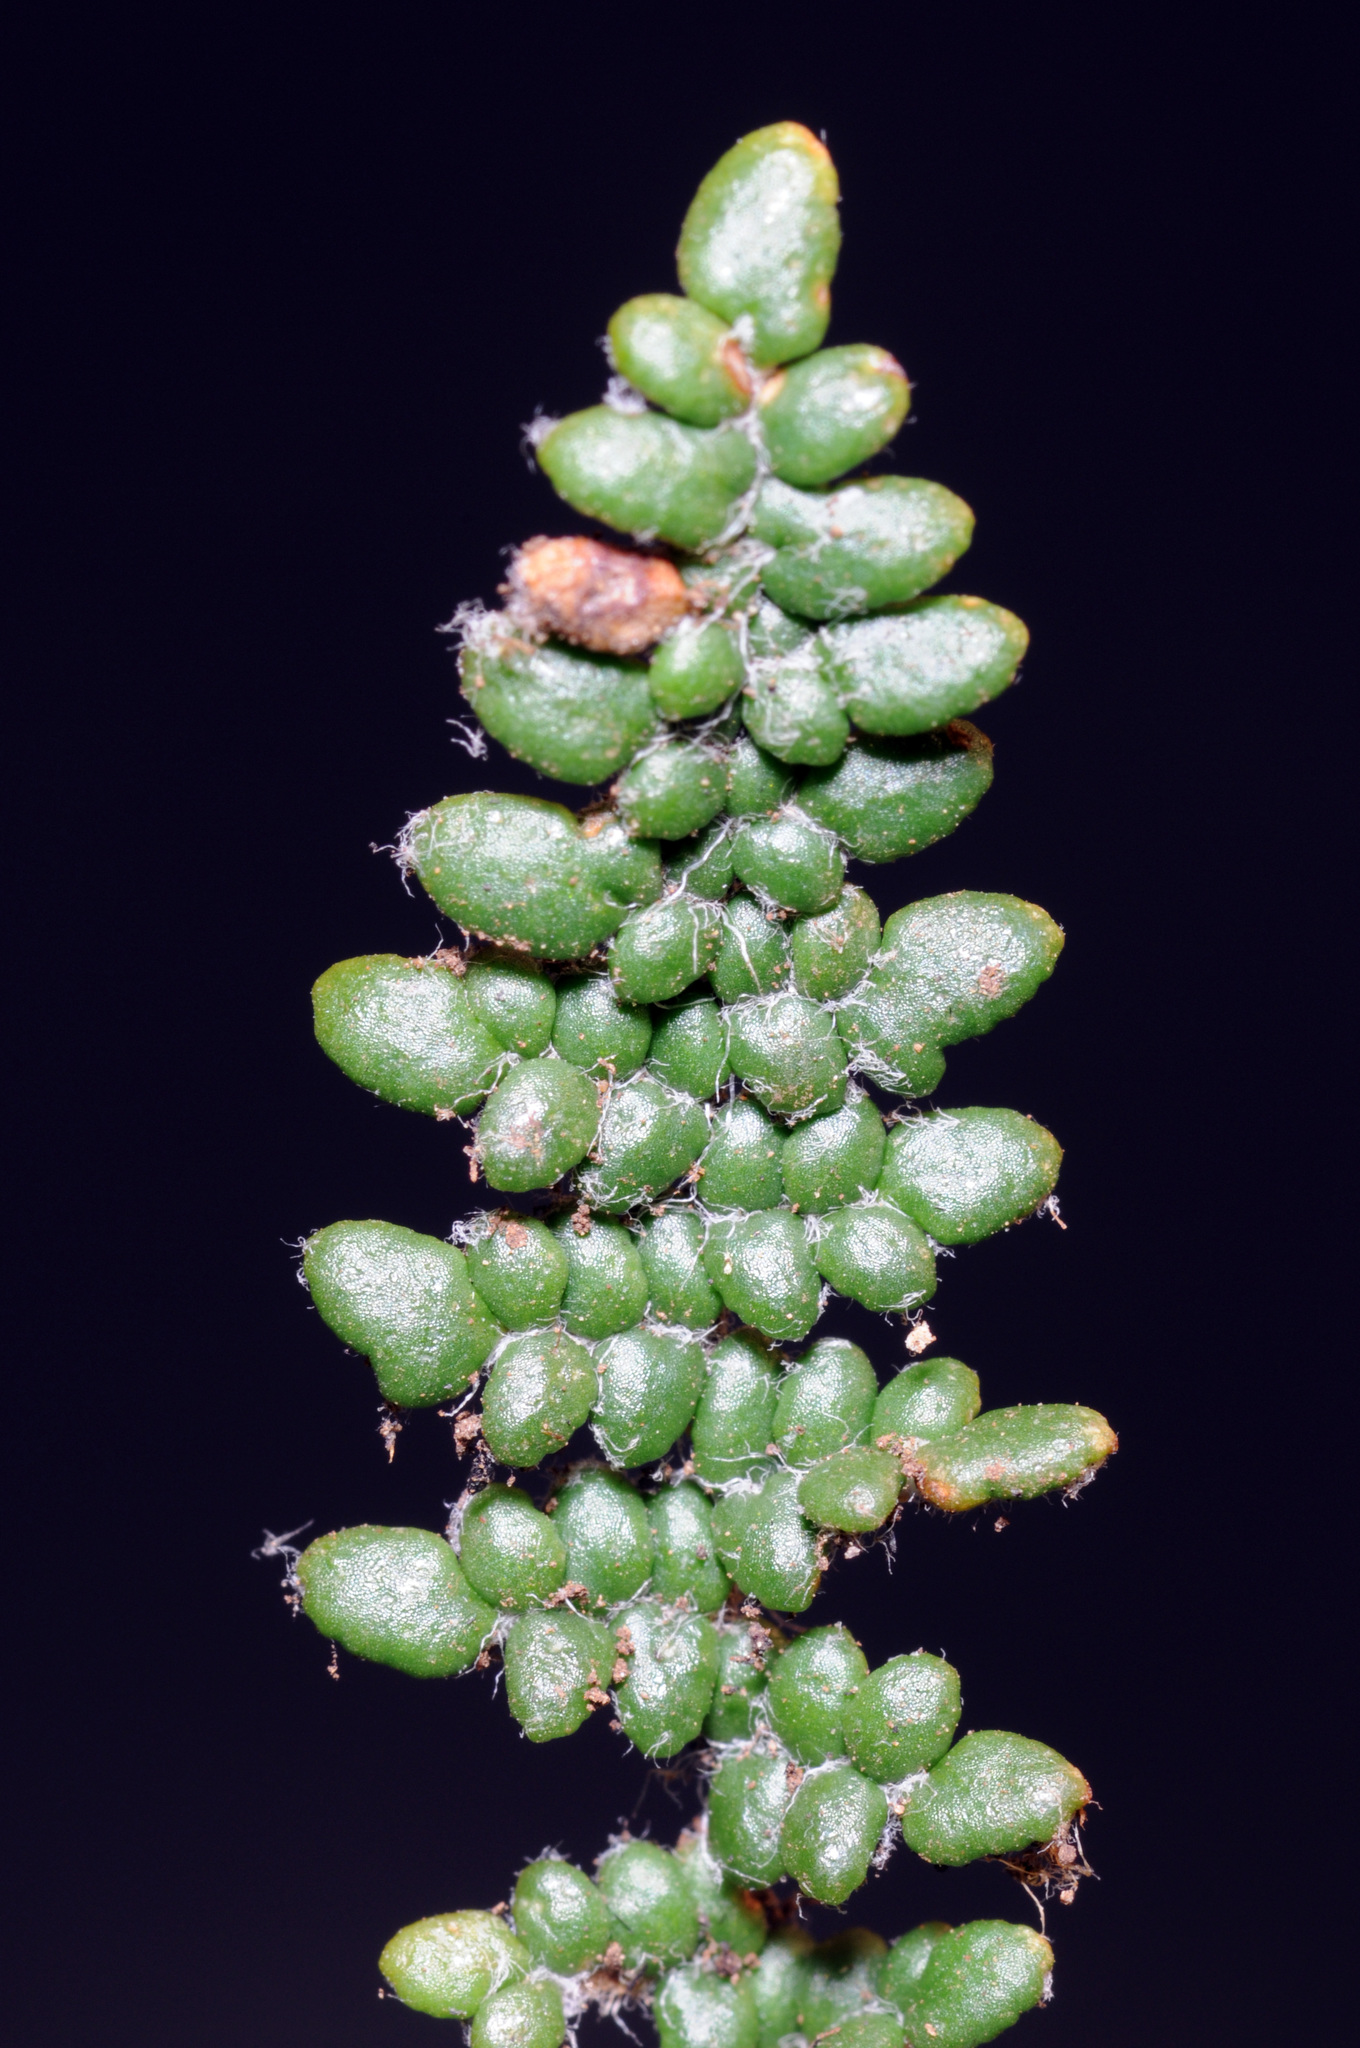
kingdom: Plantae
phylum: Tracheophyta
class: Polypodiopsida
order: Polypodiales
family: Pteridaceae
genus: Myriopteris
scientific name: Myriopteris gracillima
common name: Lace fern
